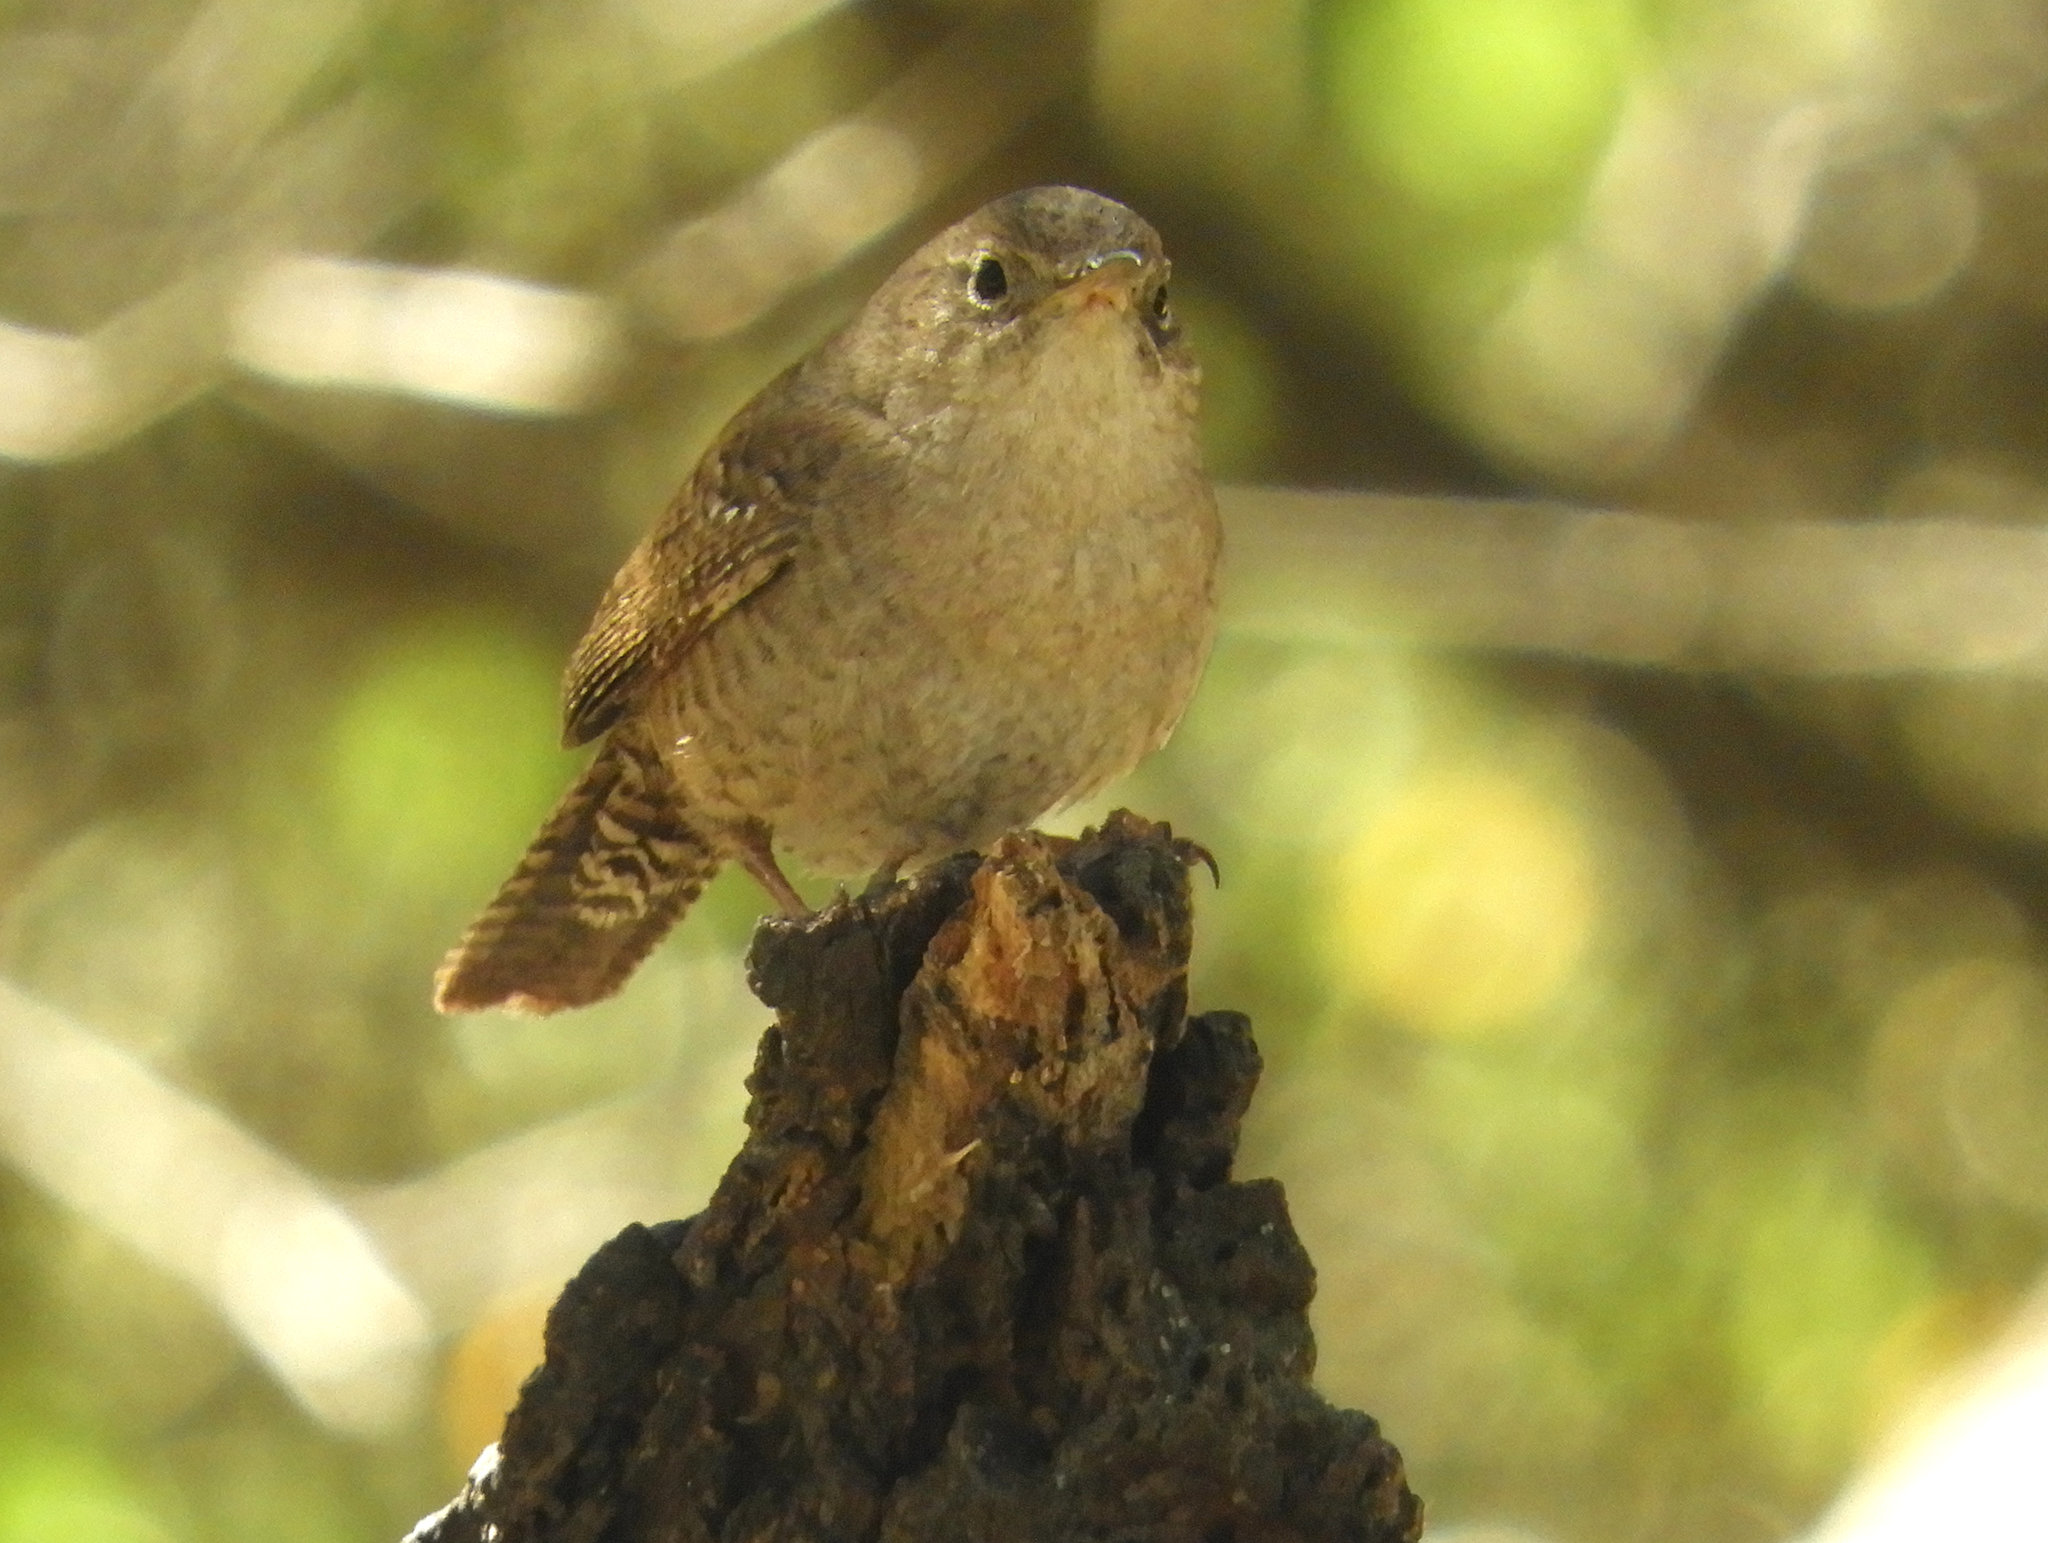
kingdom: Animalia
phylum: Chordata
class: Aves
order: Passeriformes
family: Troglodytidae
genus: Troglodytes
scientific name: Troglodytes aedon
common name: House wren
